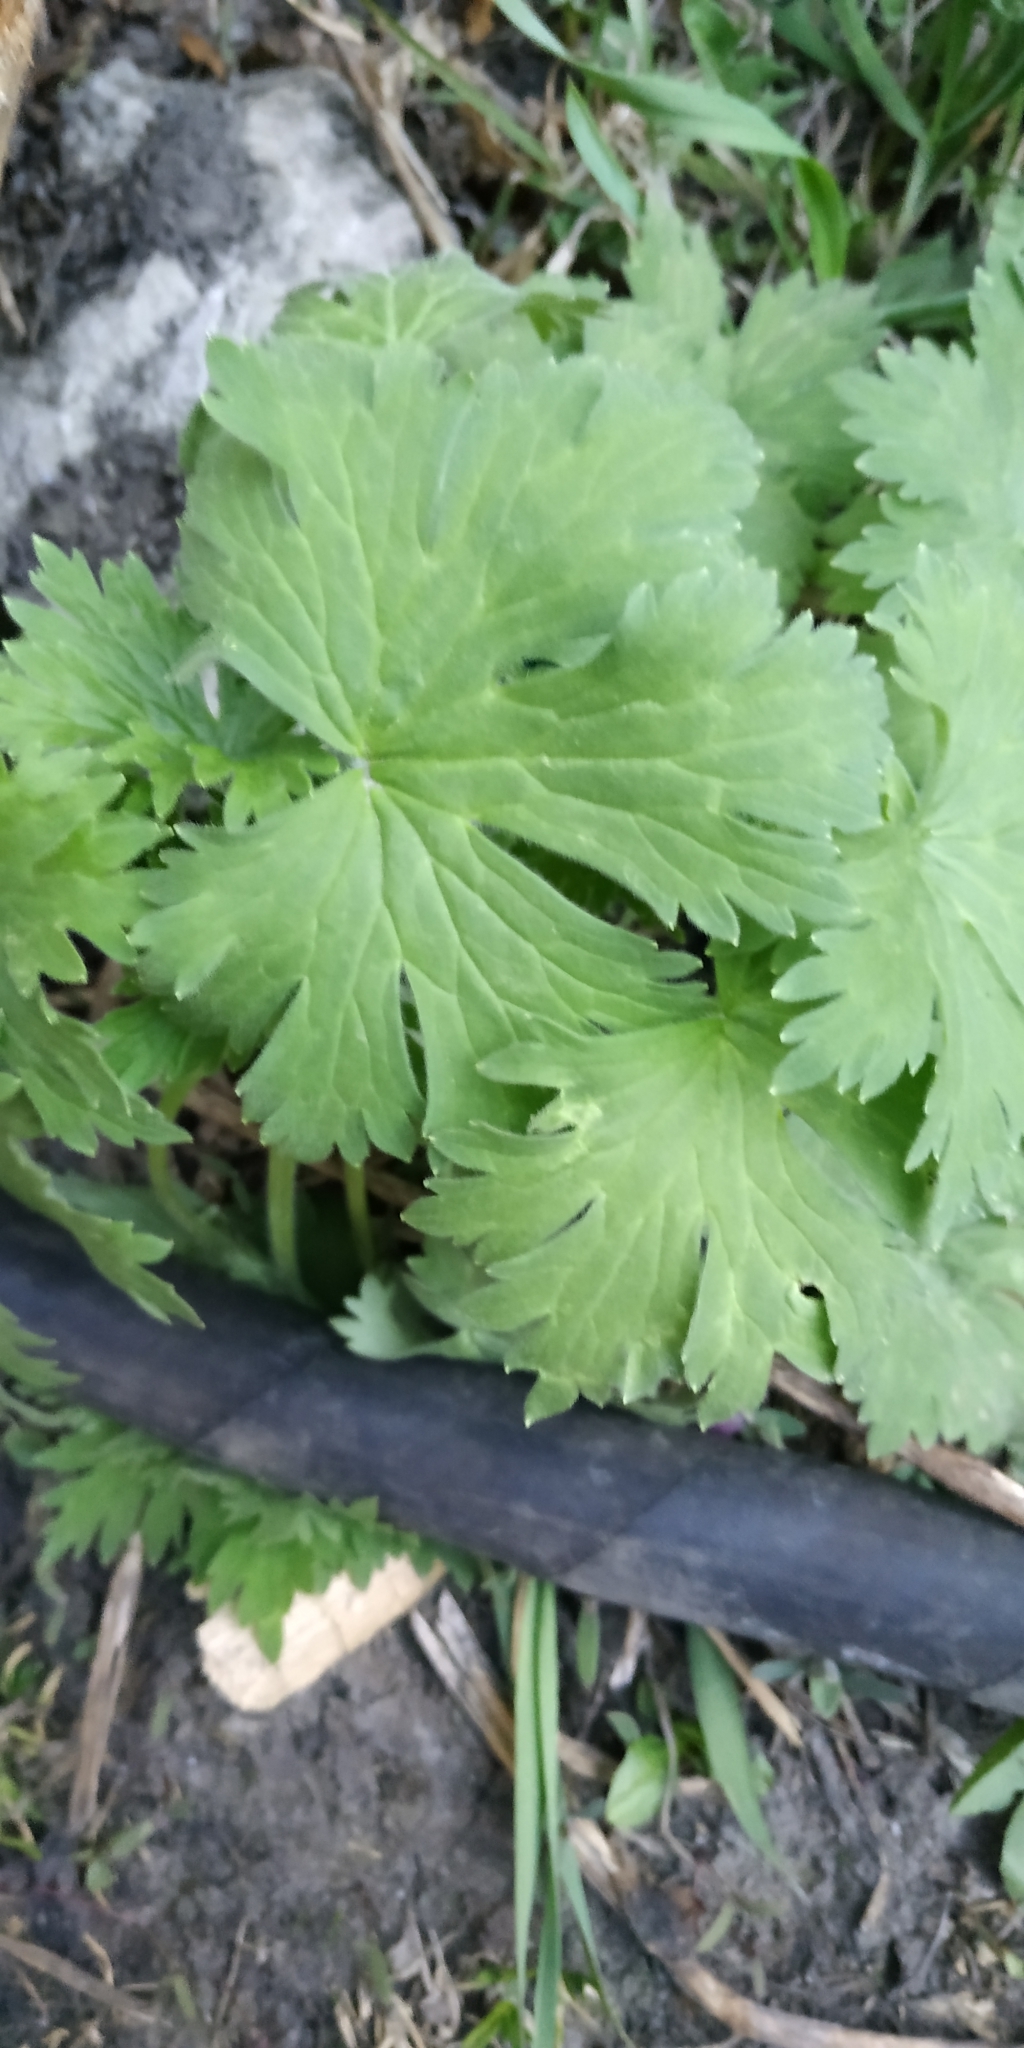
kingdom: Plantae
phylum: Tracheophyta
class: Magnoliopsida
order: Ranunculales
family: Ranunculaceae
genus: Delphinium
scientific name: Delphinium cultorum
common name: Garden delphinium
